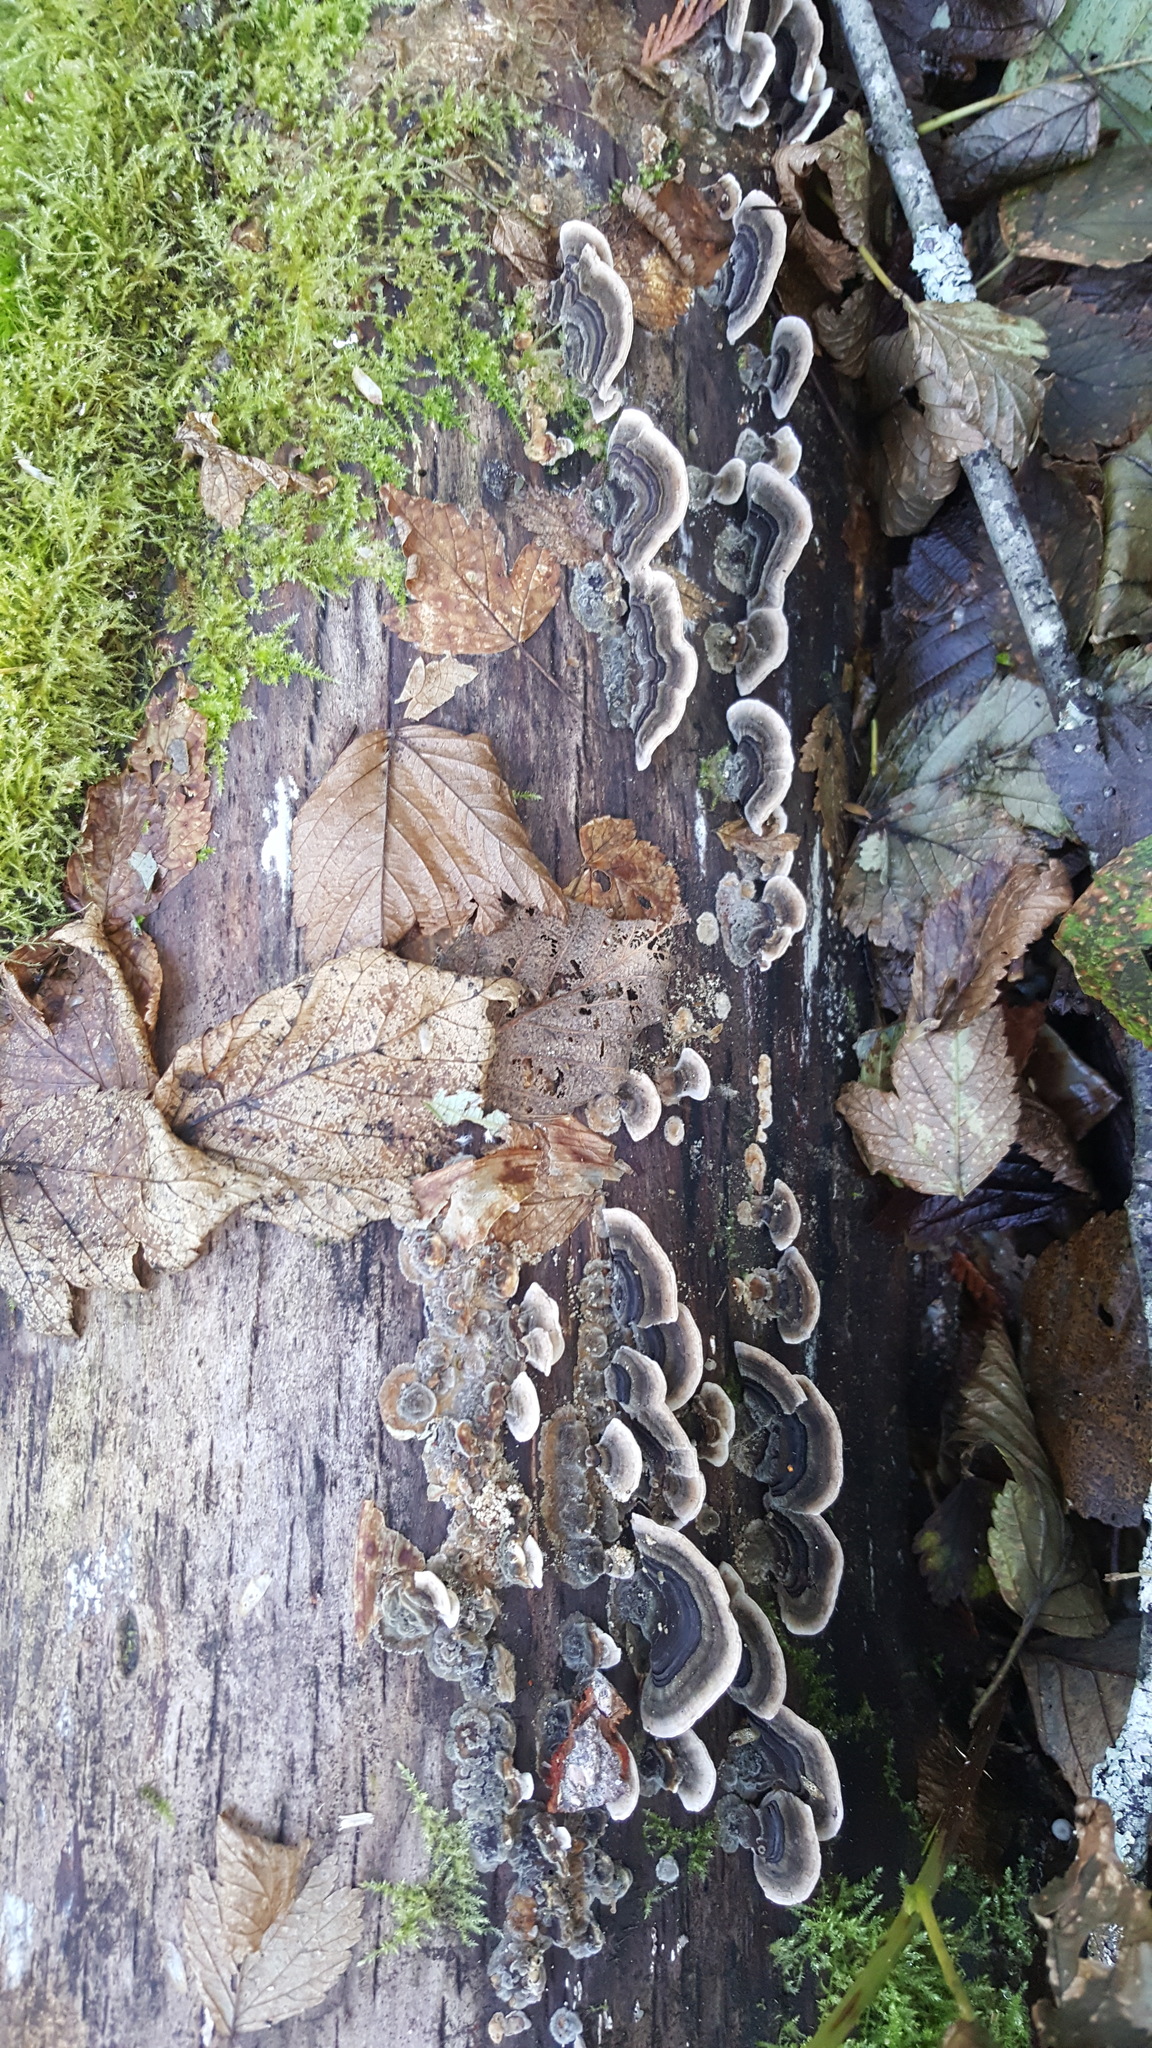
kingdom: Fungi
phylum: Basidiomycota
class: Agaricomycetes
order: Polyporales
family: Polyporaceae
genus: Trametes
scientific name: Trametes versicolor
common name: Turkeytail
